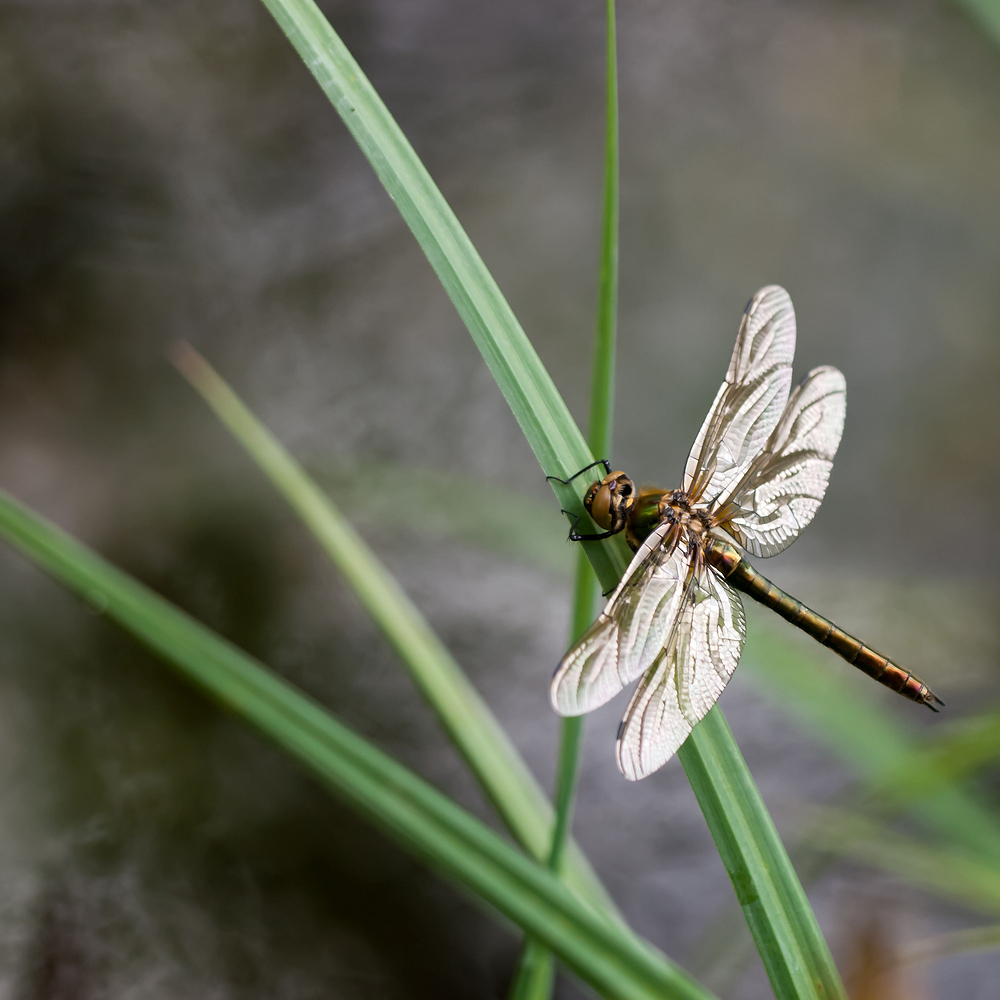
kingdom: Animalia
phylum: Arthropoda
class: Insecta
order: Odonata
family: Corduliidae
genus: Cordulia
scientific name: Cordulia aenea
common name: Downy emerald
